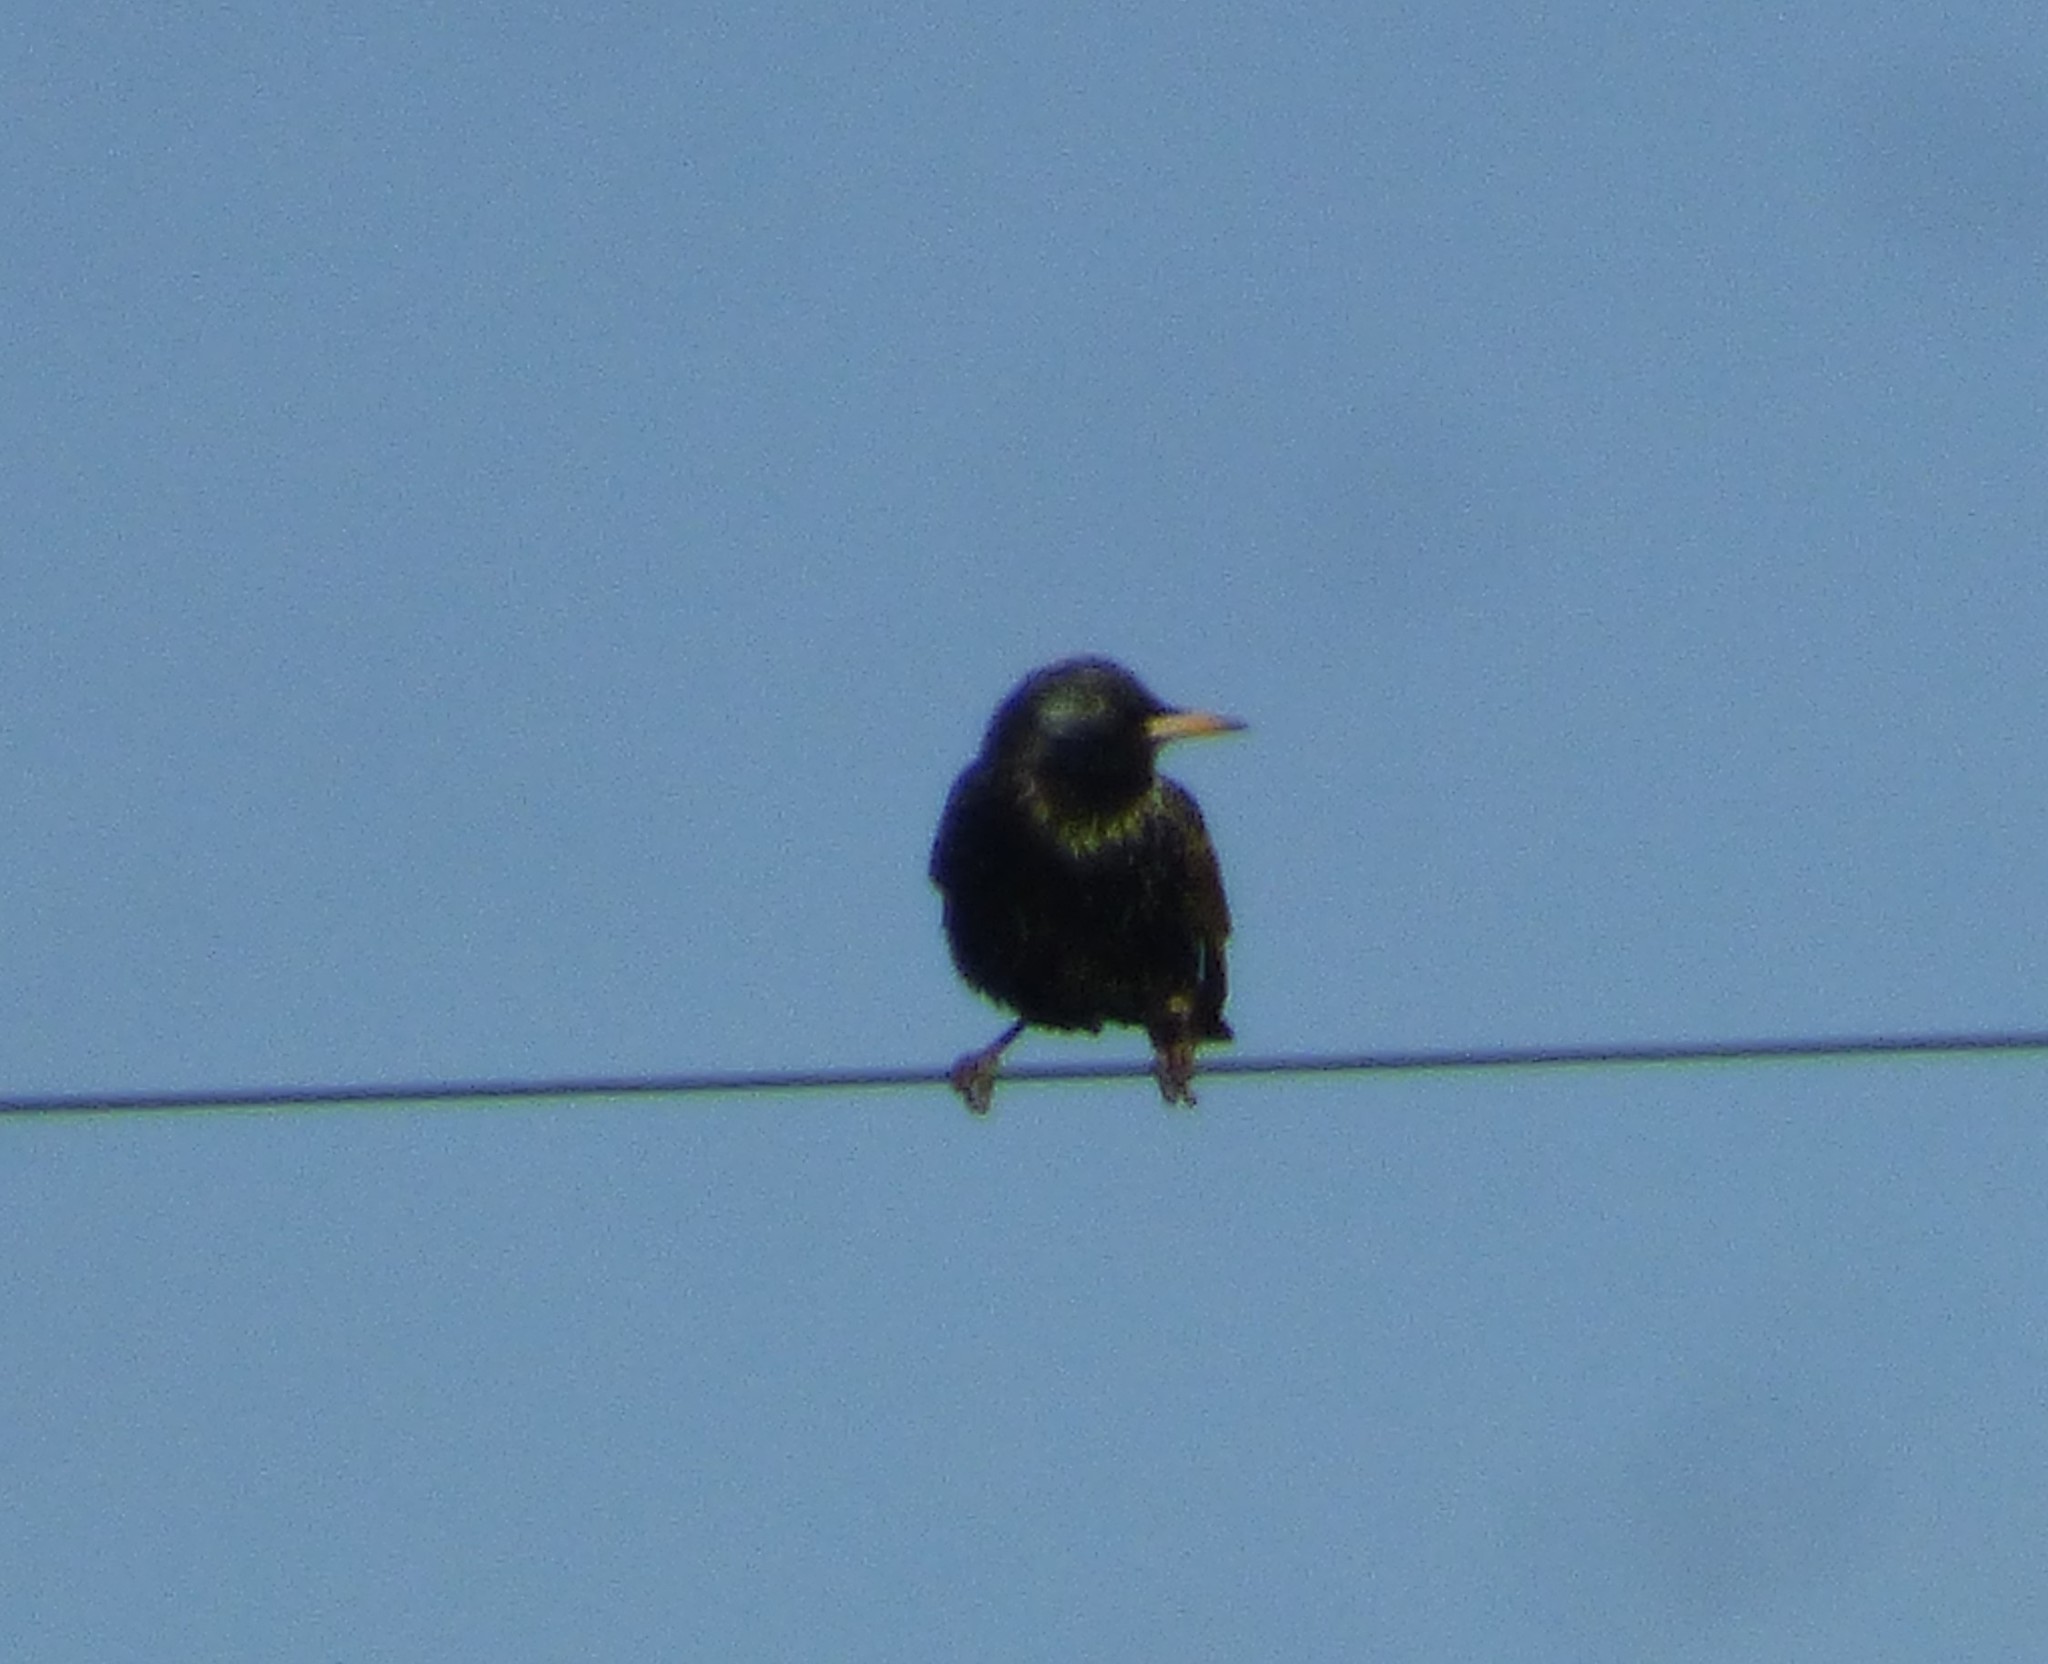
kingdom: Animalia
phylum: Chordata
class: Aves
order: Passeriformes
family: Sturnidae
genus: Sturnus
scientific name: Sturnus vulgaris
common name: Common starling
